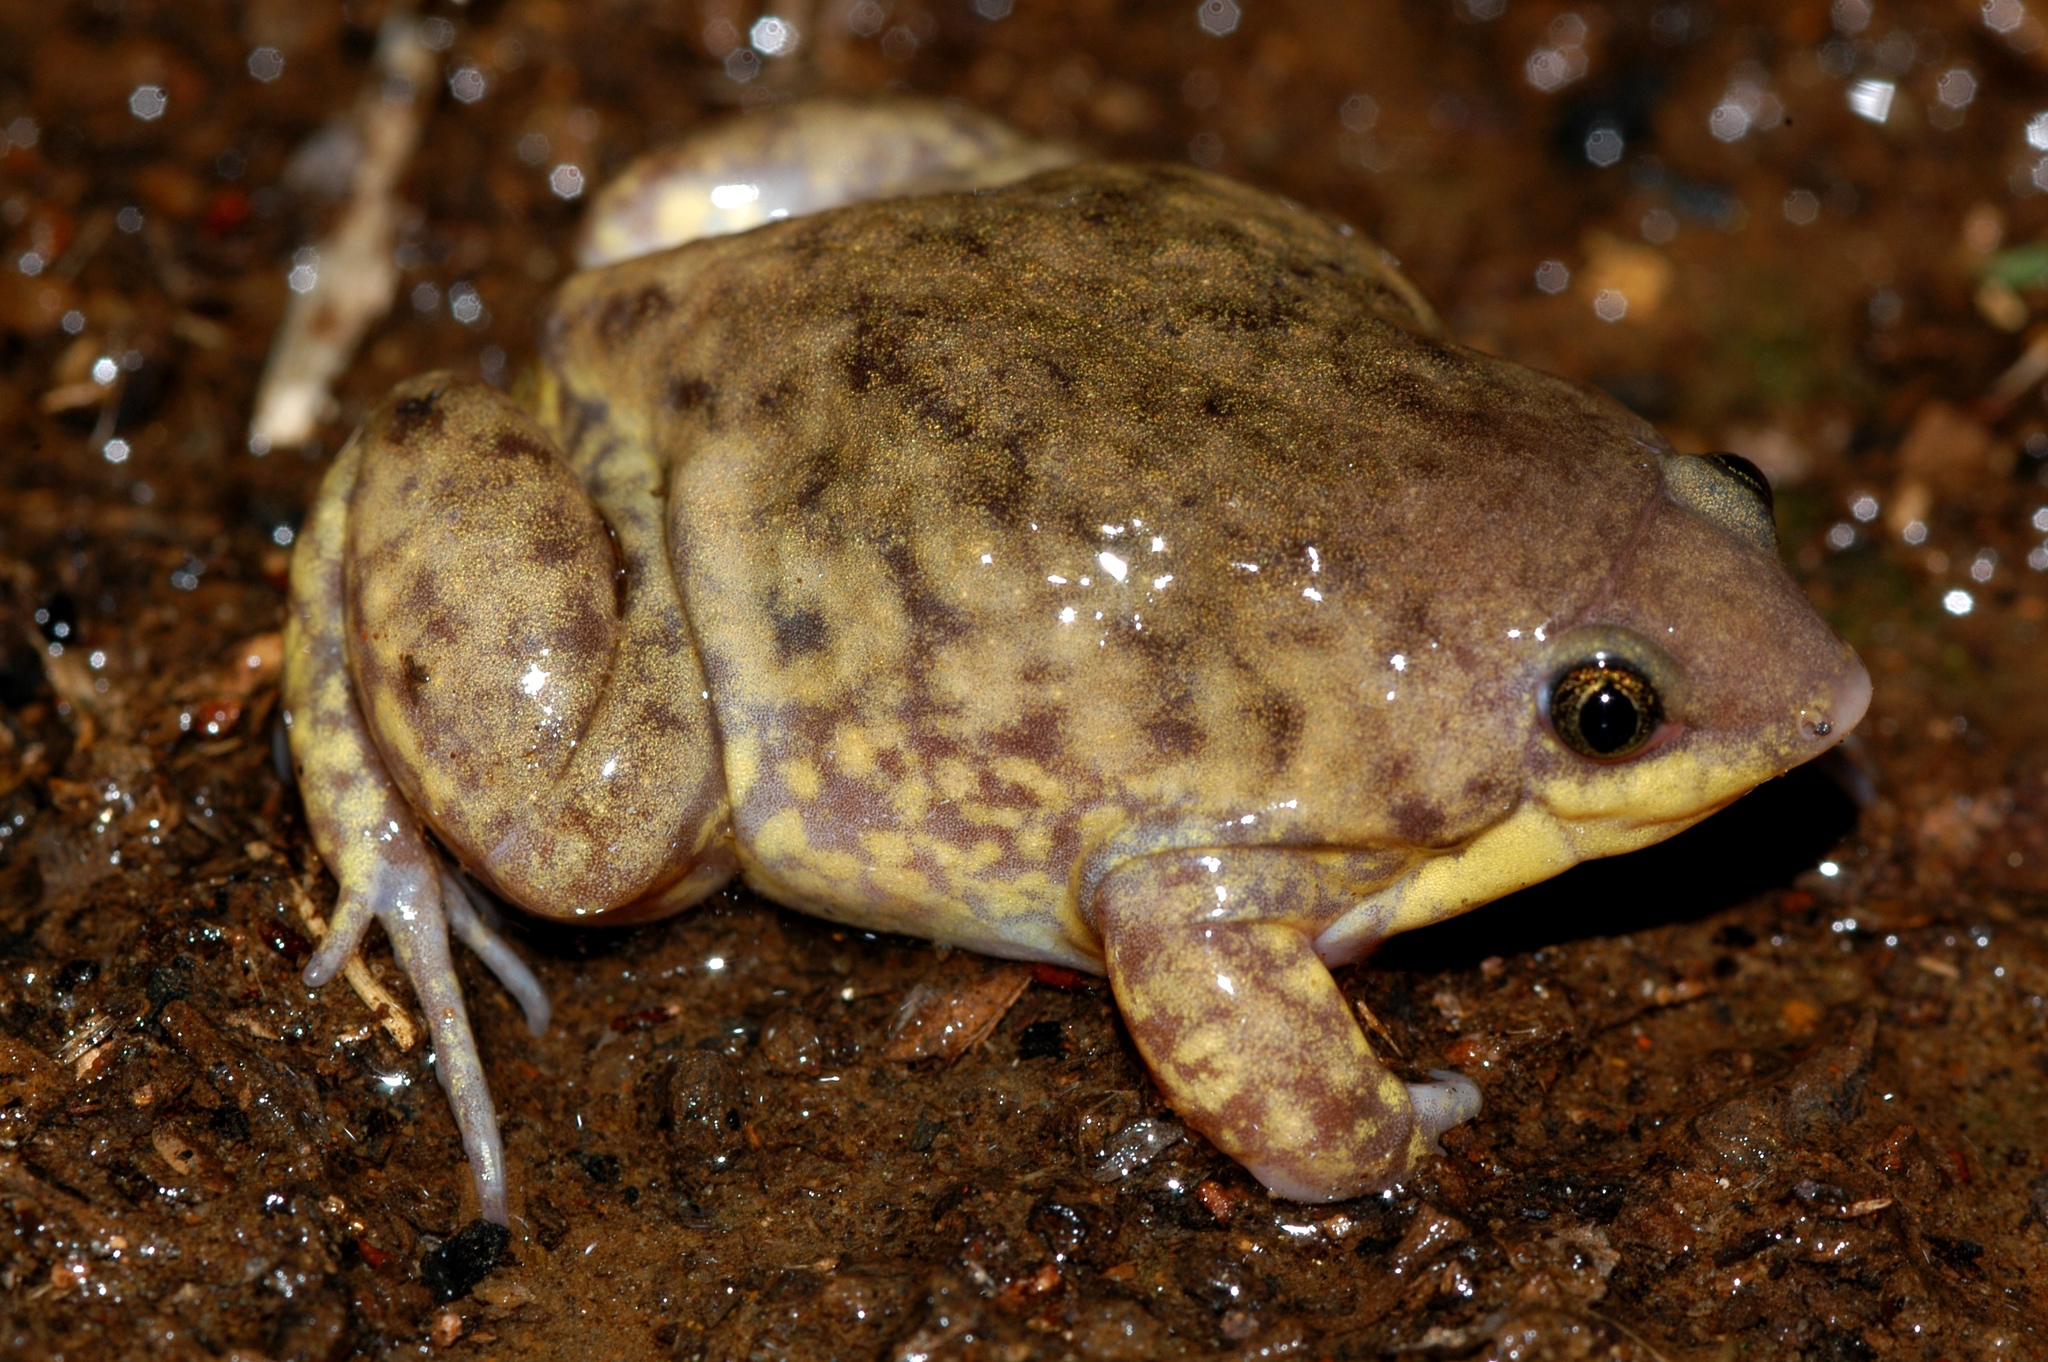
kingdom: Animalia
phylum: Chordata
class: Amphibia
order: Anura
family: Hemisotidae
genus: Hemisus
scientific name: Hemisus marmoratus
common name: Mottled shovel-nosed frog
